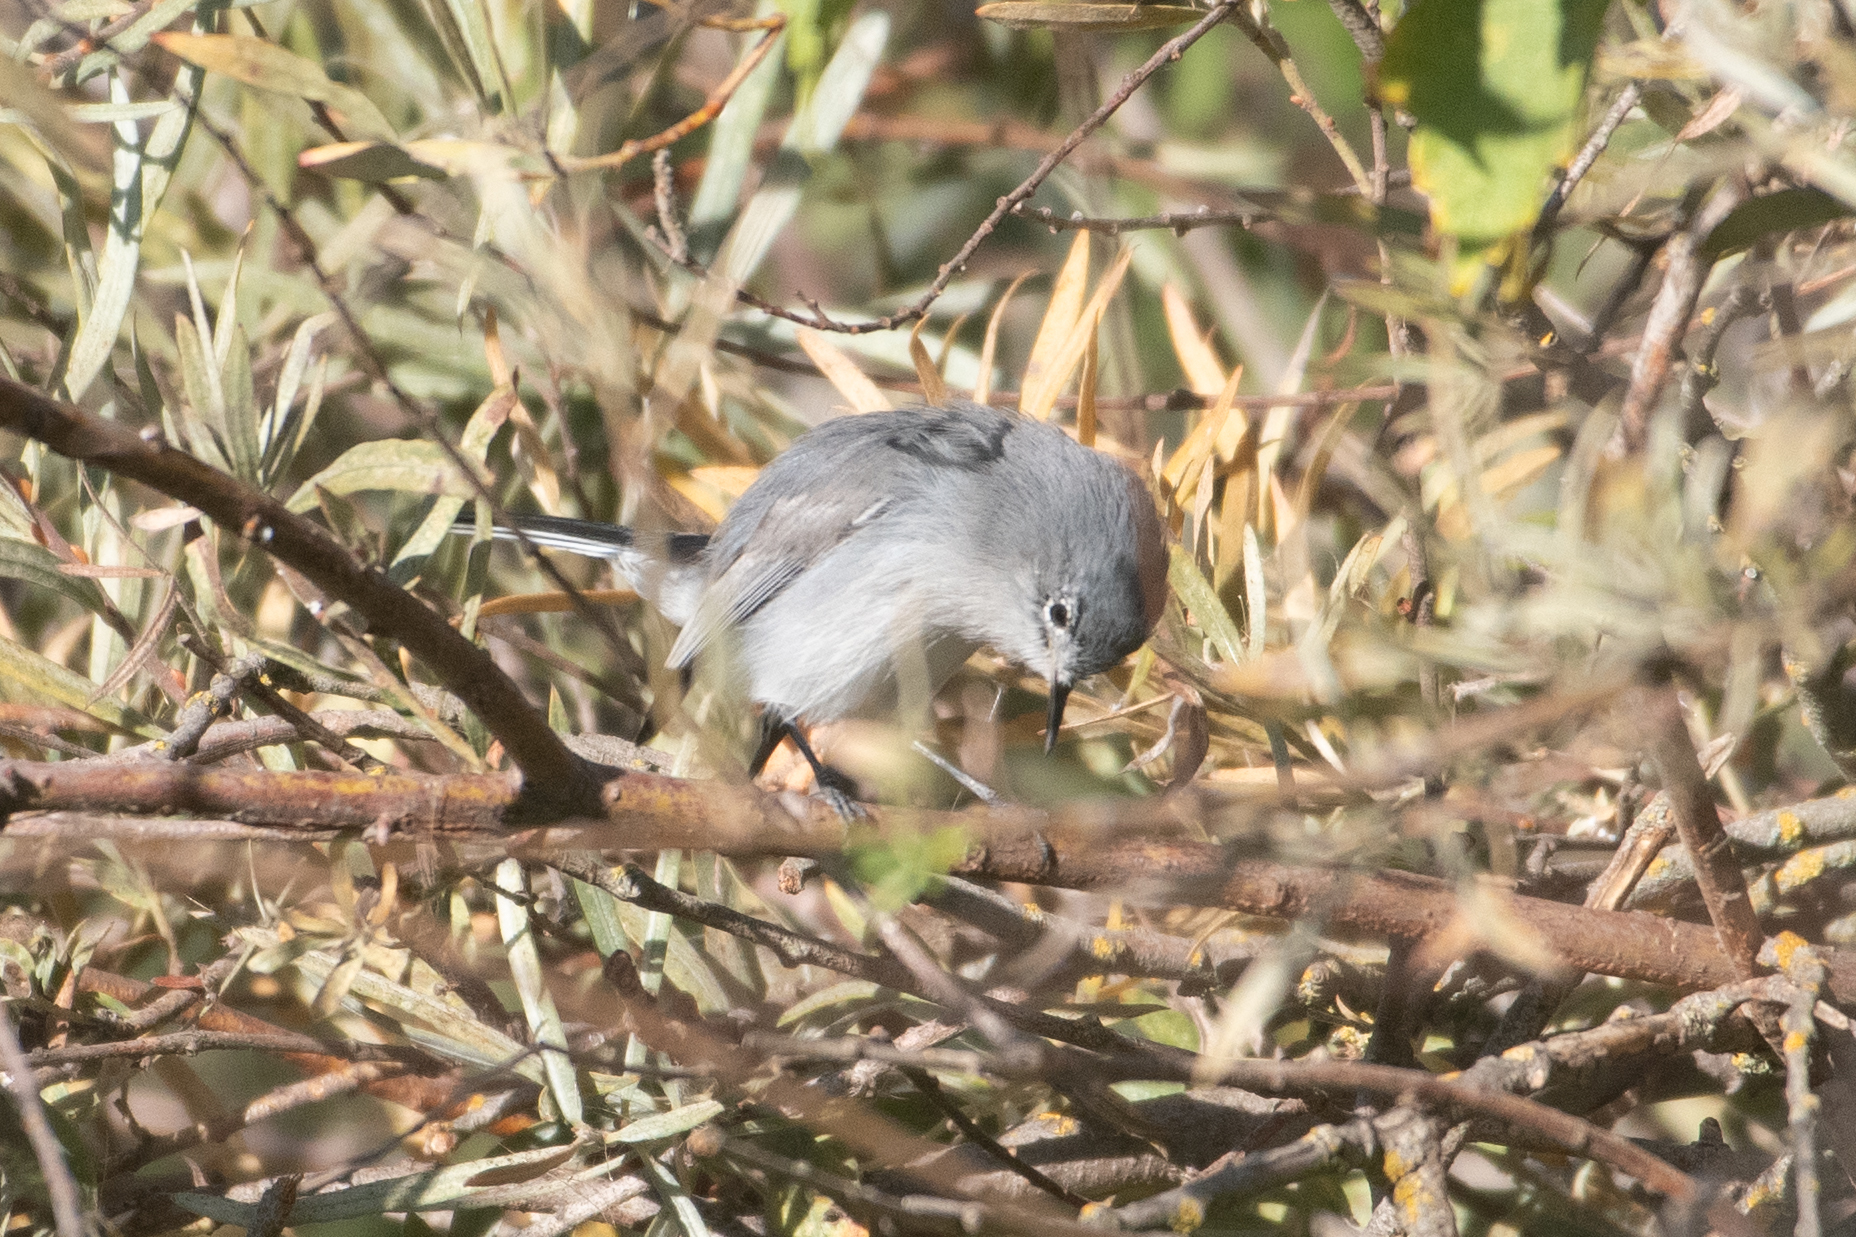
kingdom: Animalia
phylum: Chordata
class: Aves
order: Passeriformes
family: Polioptilidae
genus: Polioptila
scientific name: Polioptila caerulea
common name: Blue-gray gnatcatcher
